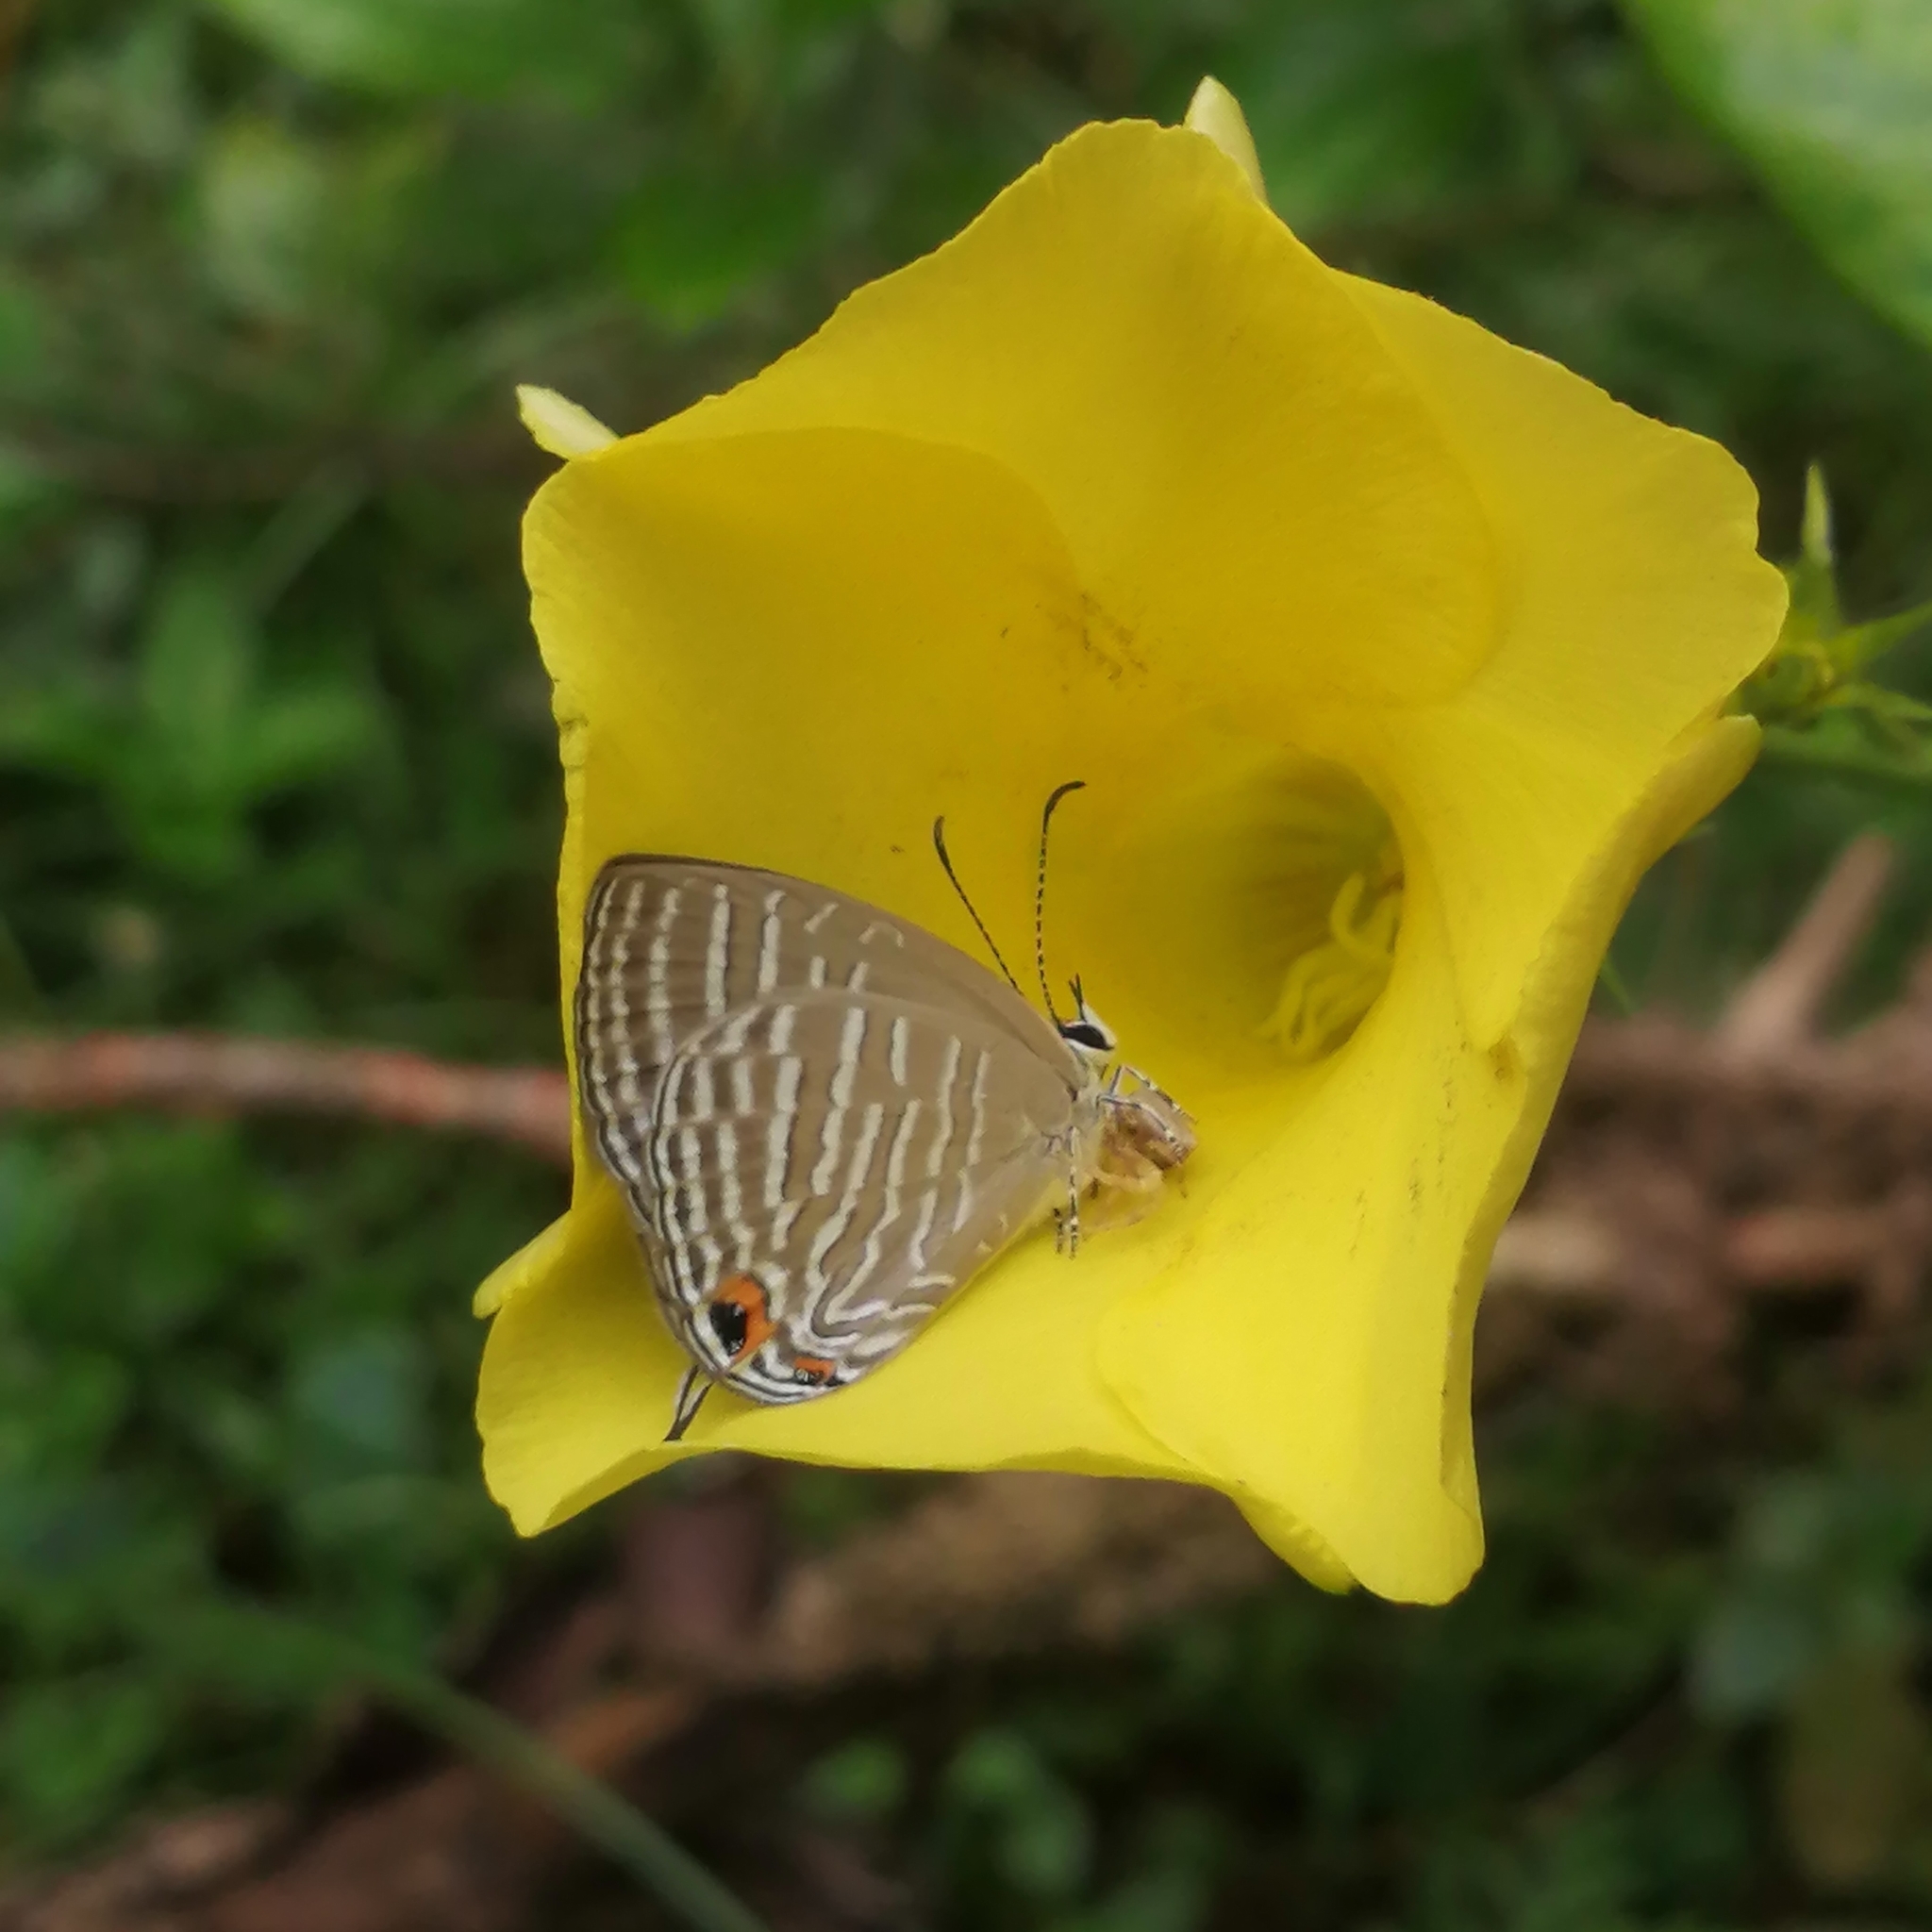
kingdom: Animalia
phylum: Arthropoda
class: Insecta
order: Lepidoptera
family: Lycaenidae
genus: Jamides
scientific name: Jamides celeno
